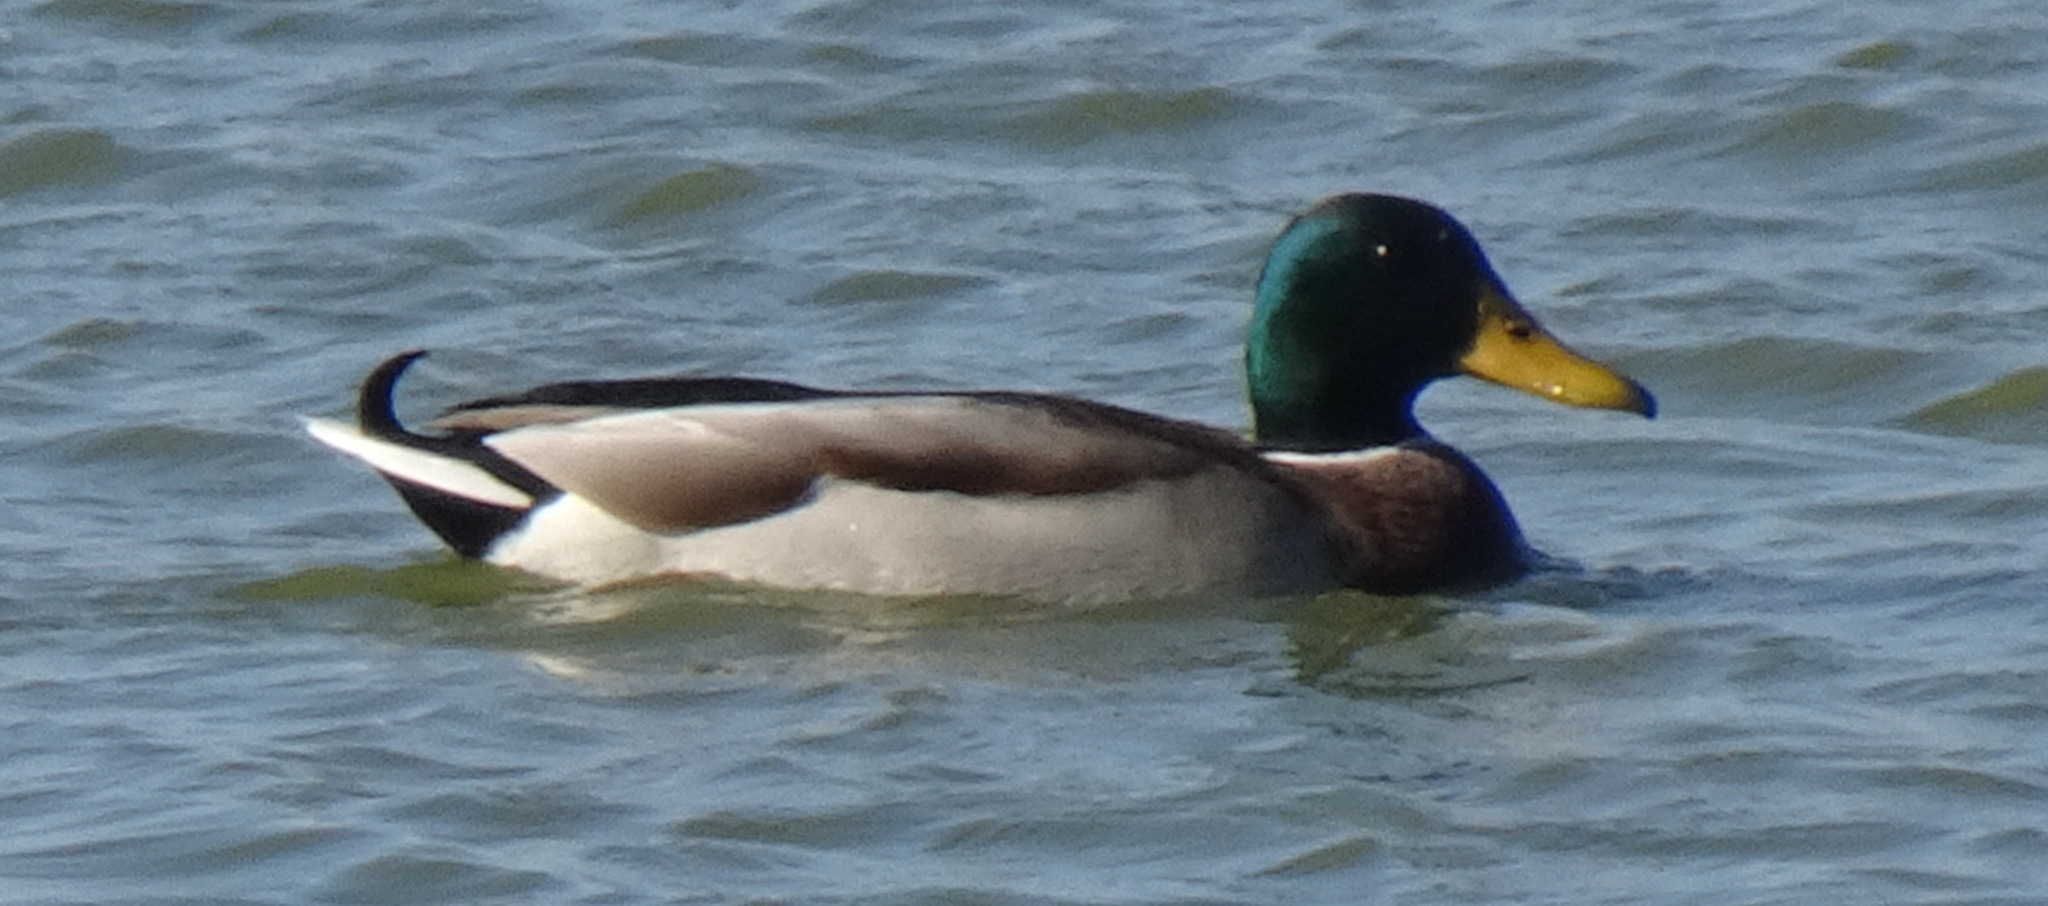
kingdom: Animalia
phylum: Chordata
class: Aves
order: Anseriformes
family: Anatidae
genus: Anas
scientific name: Anas platyrhynchos
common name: Mallard
